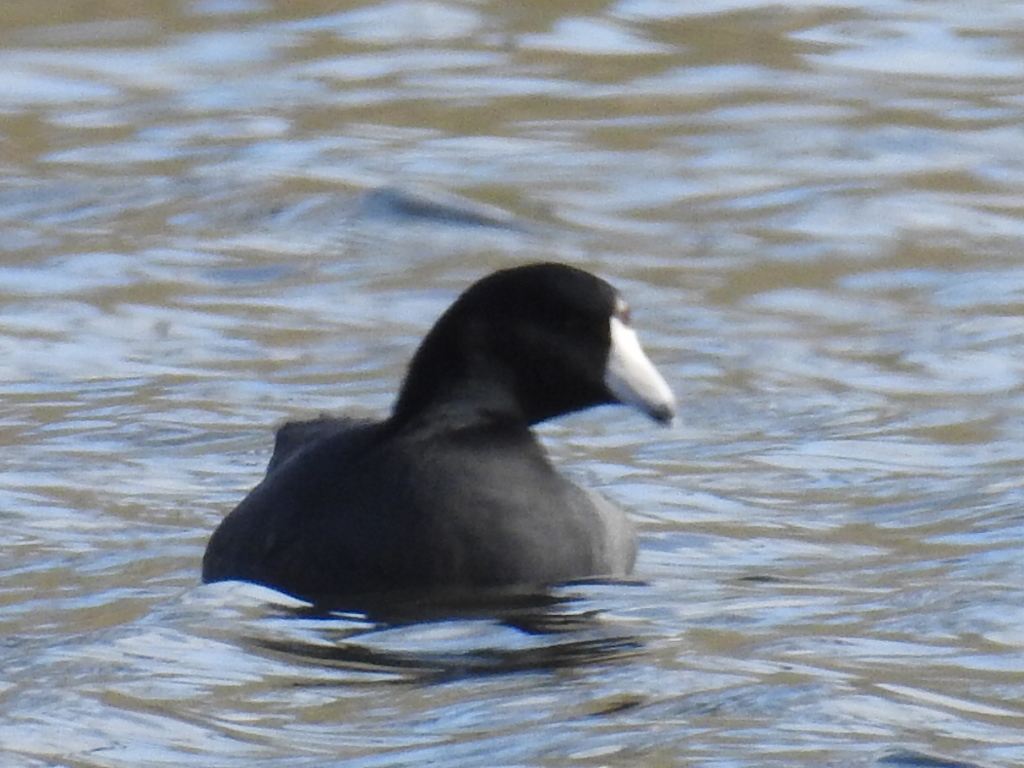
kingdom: Animalia
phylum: Chordata
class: Aves
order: Gruiformes
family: Rallidae
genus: Fulica
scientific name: Fulica americana
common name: American coot
